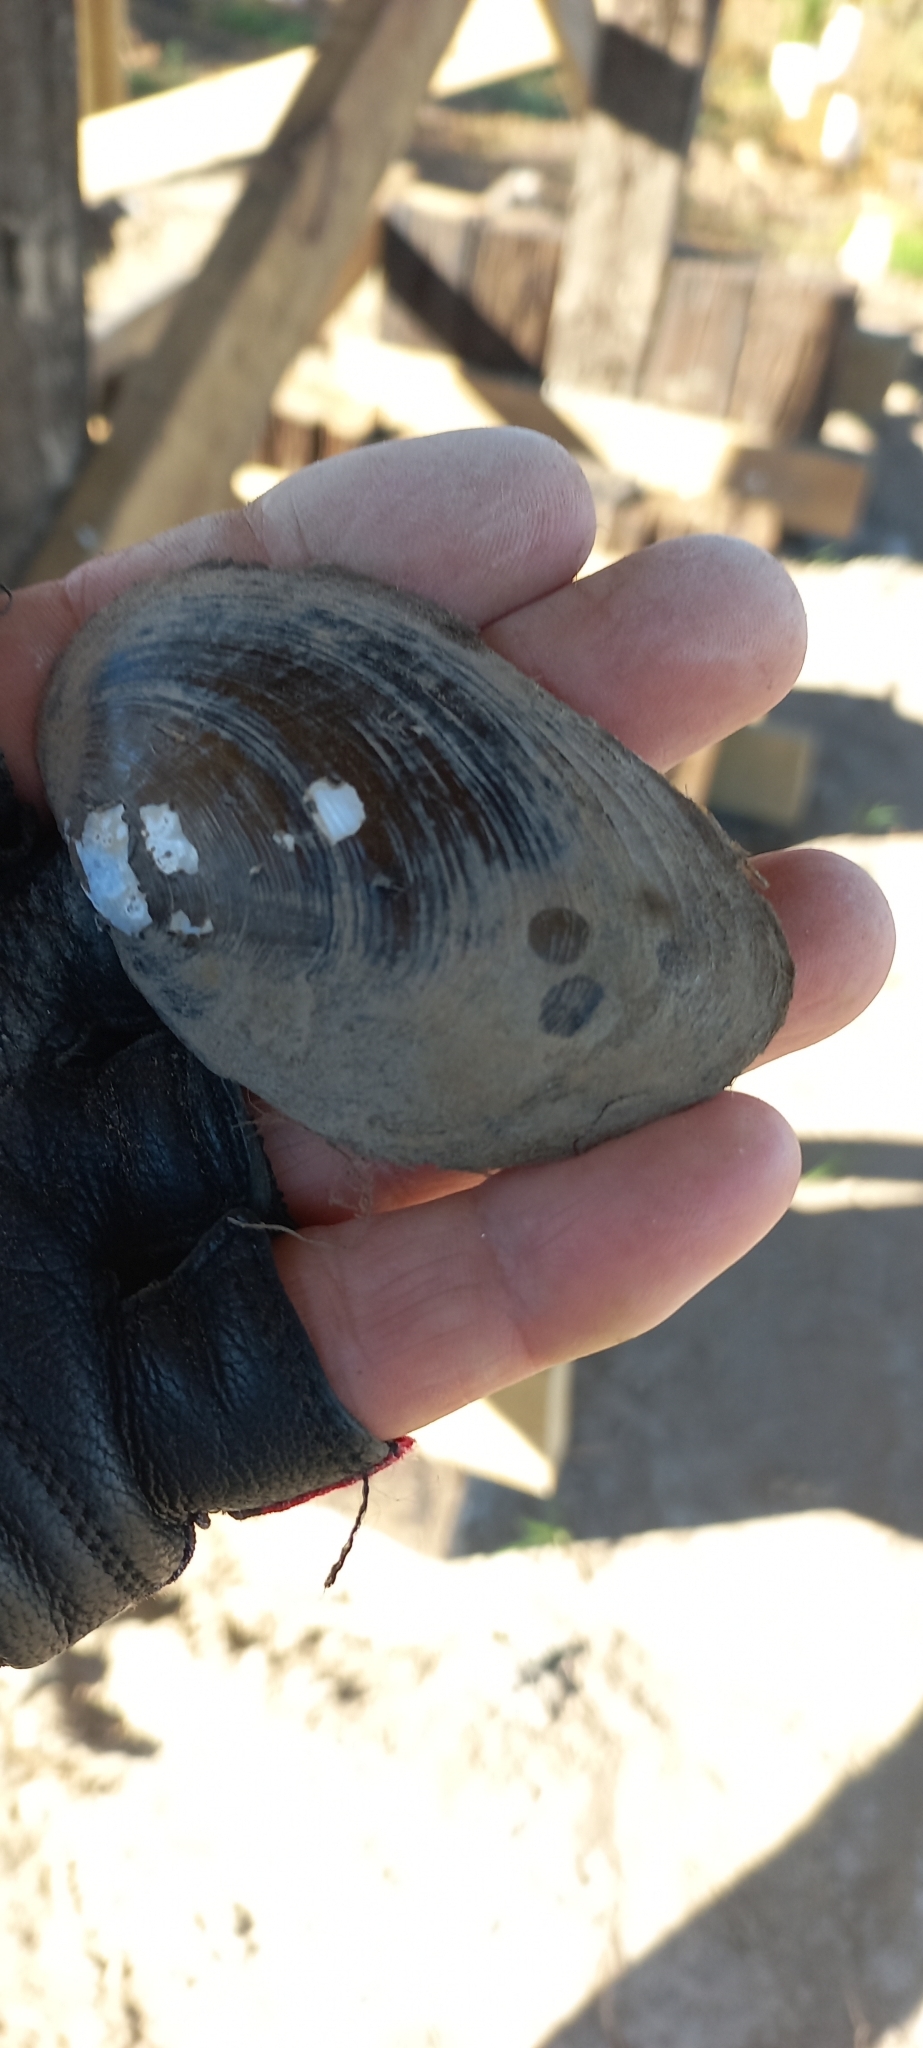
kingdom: Animalia
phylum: Mollusca
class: Bivalvia
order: Unionida
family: Hyriidae
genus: Echyridella
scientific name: Echyridella menziesii
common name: New zealand freshwater mussel
